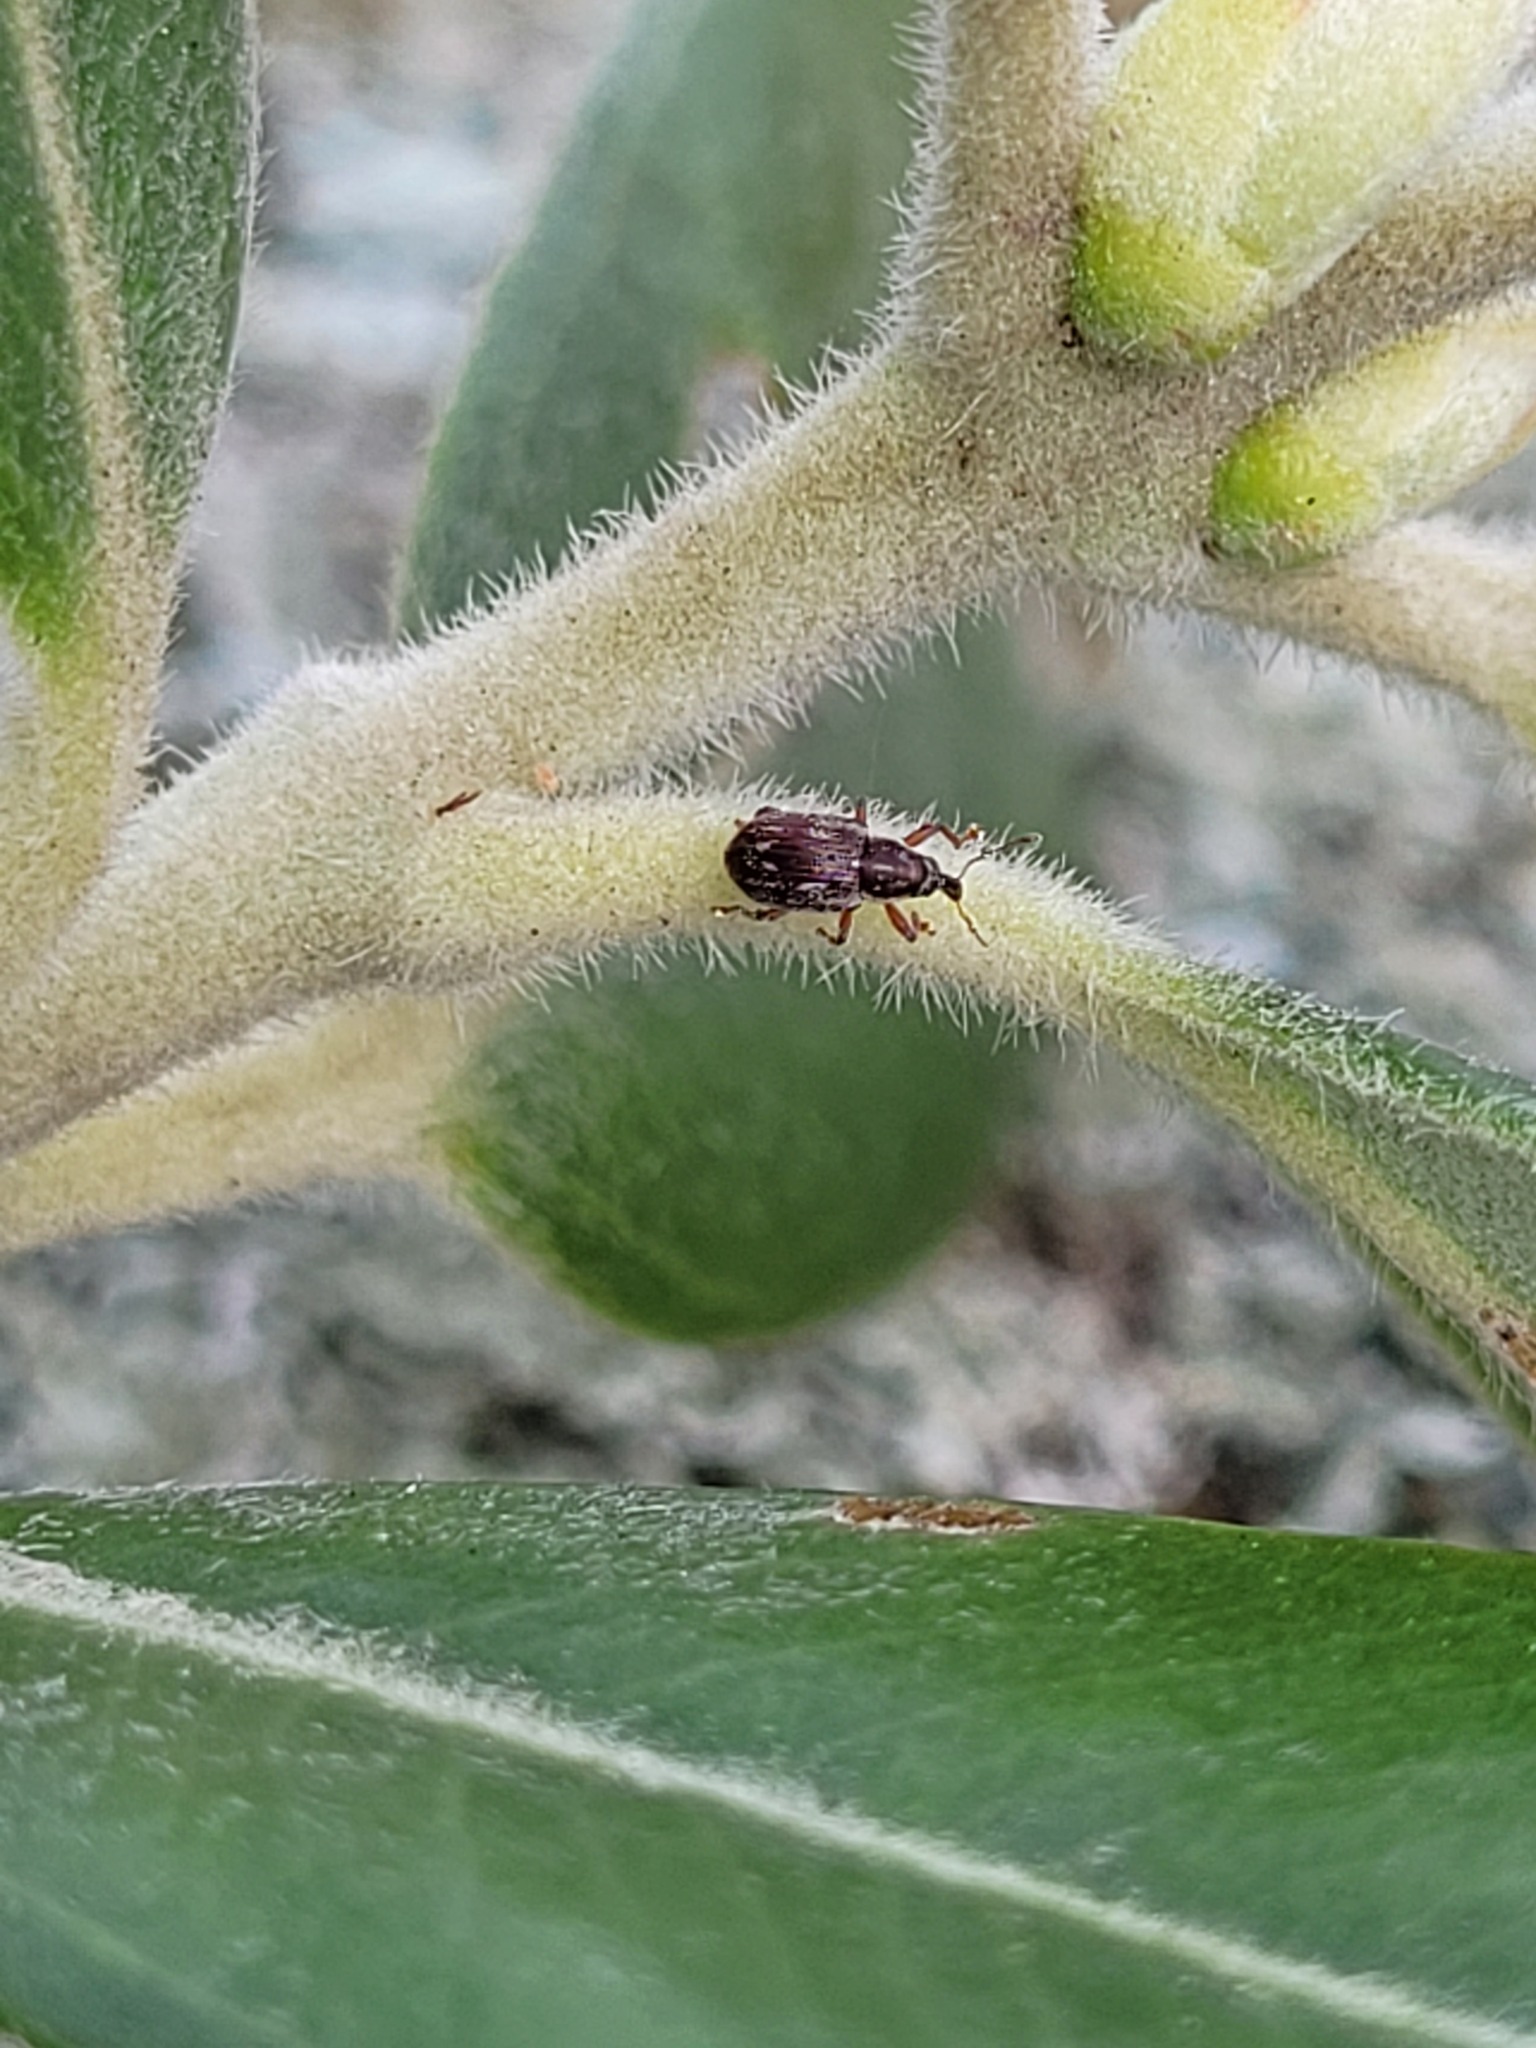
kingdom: Animalia
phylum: Arthropoda
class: Insecta
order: Coleoptera
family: Curculionidae
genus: Neomycta
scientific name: Neomycta rubida
